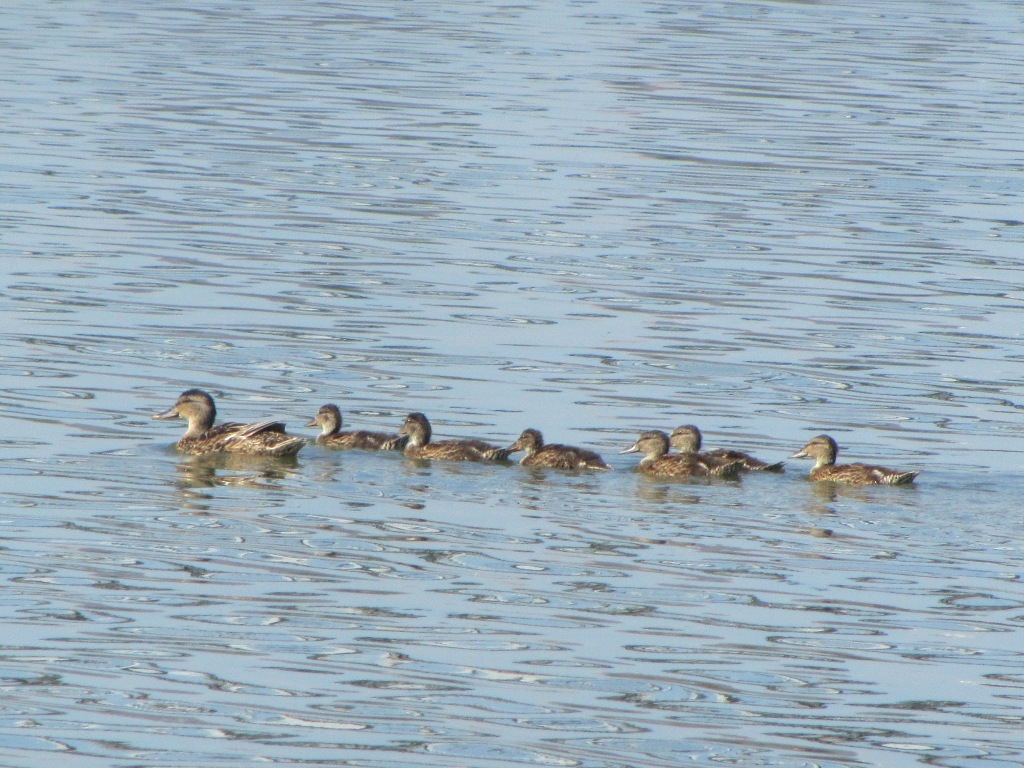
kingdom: Animalia
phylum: Chordata
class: Aves
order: Anseriformes
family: Anatidae
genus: Anas
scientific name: Anas crecca
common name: Eurasian teal
